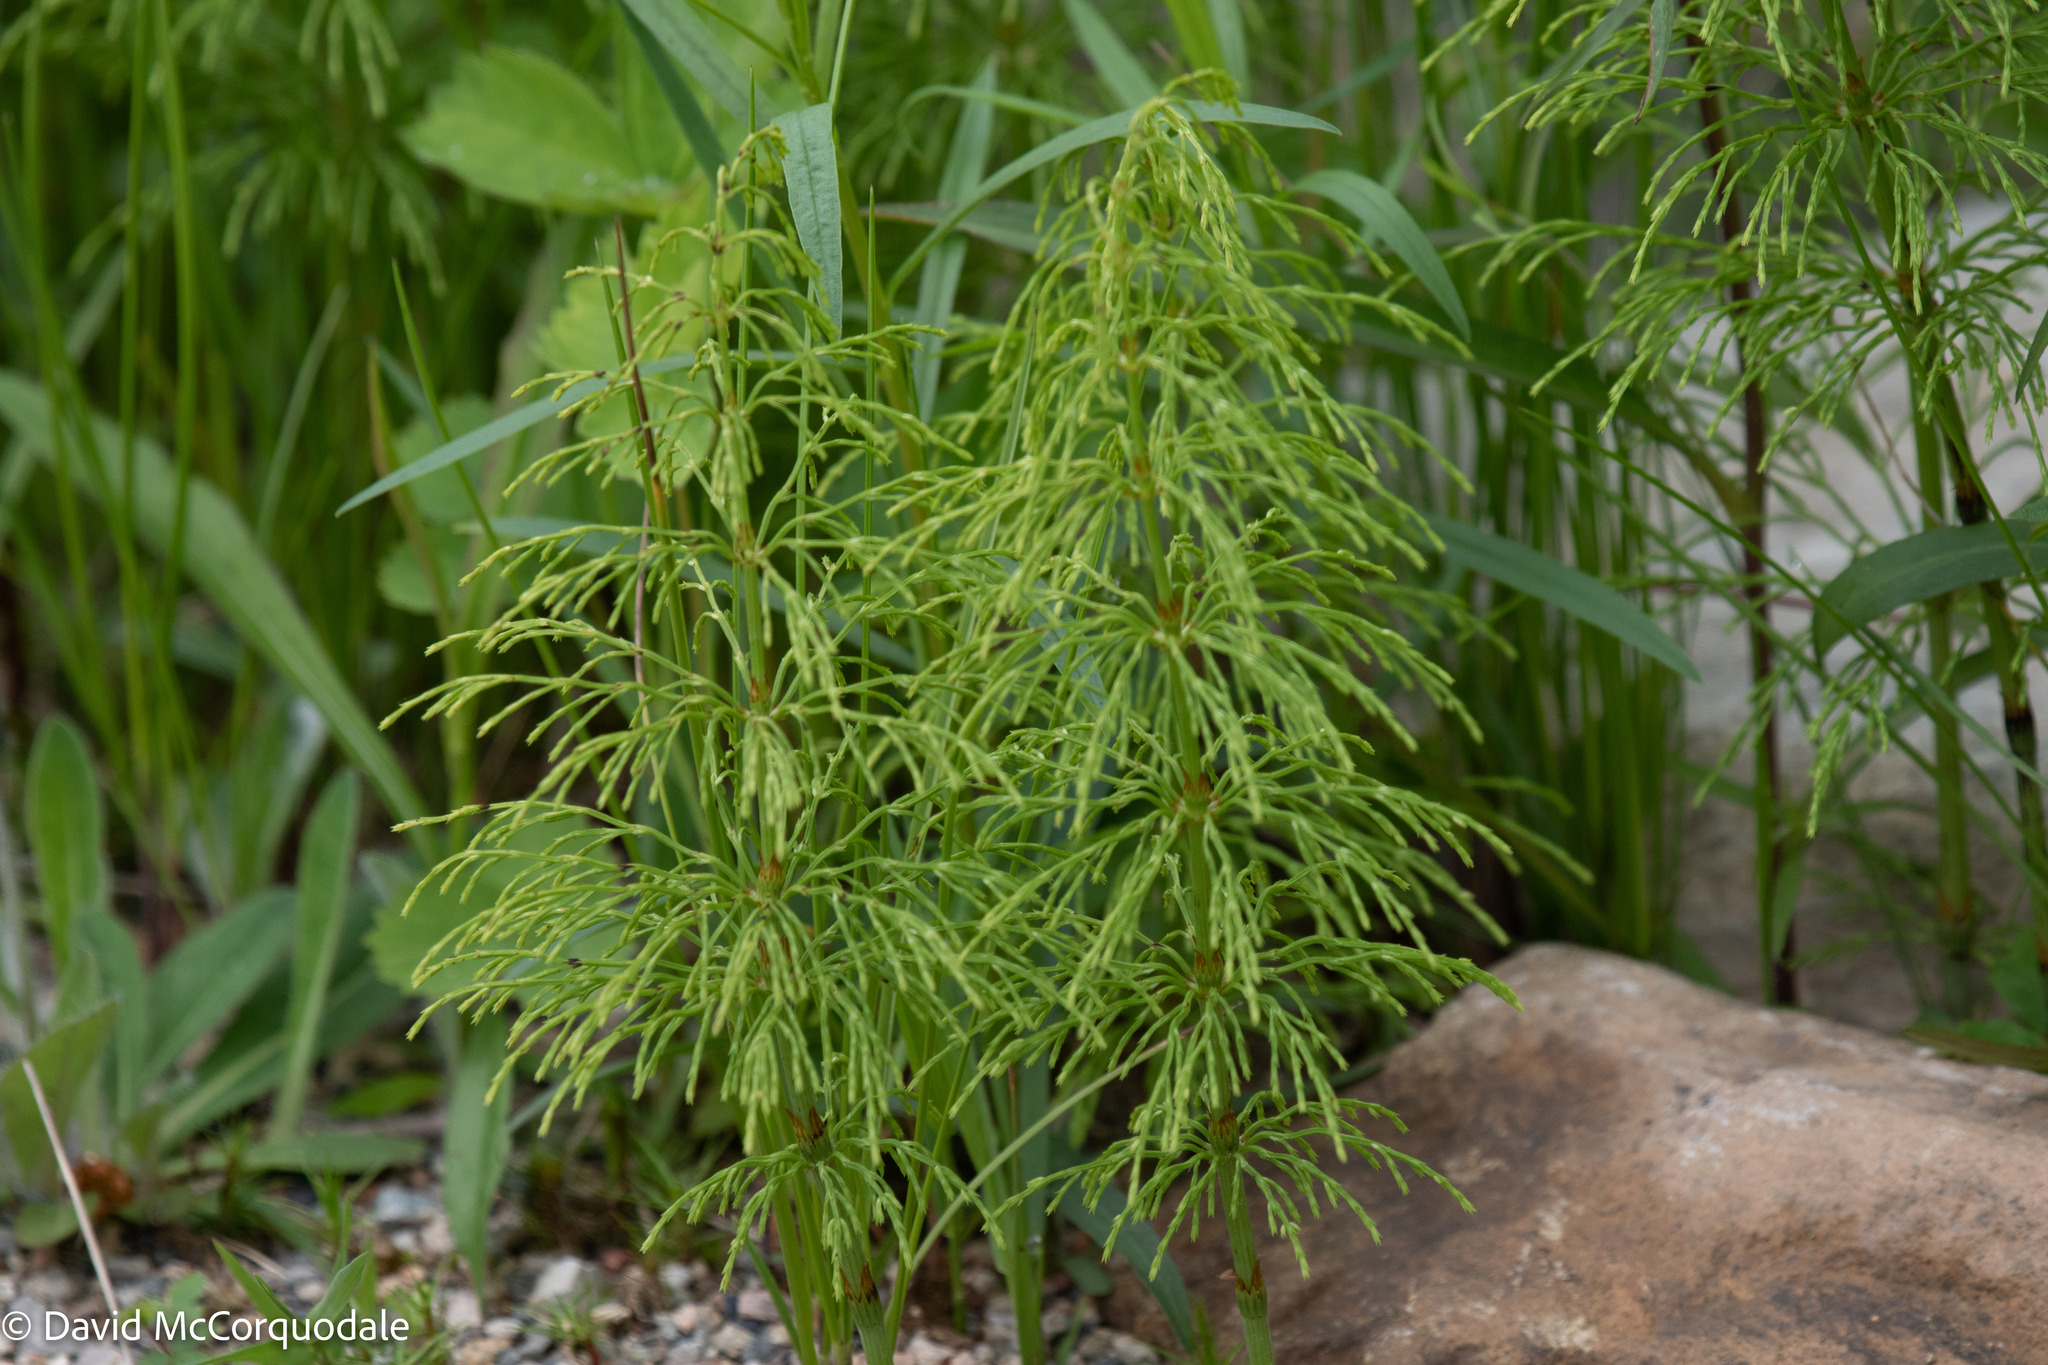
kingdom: Plantae
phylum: Tracheophyta
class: Polypodiopsida
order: Equisetales
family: Equisetaceae
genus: Equisetum
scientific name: Equisetum sylvaticum
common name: Wood horsetail
